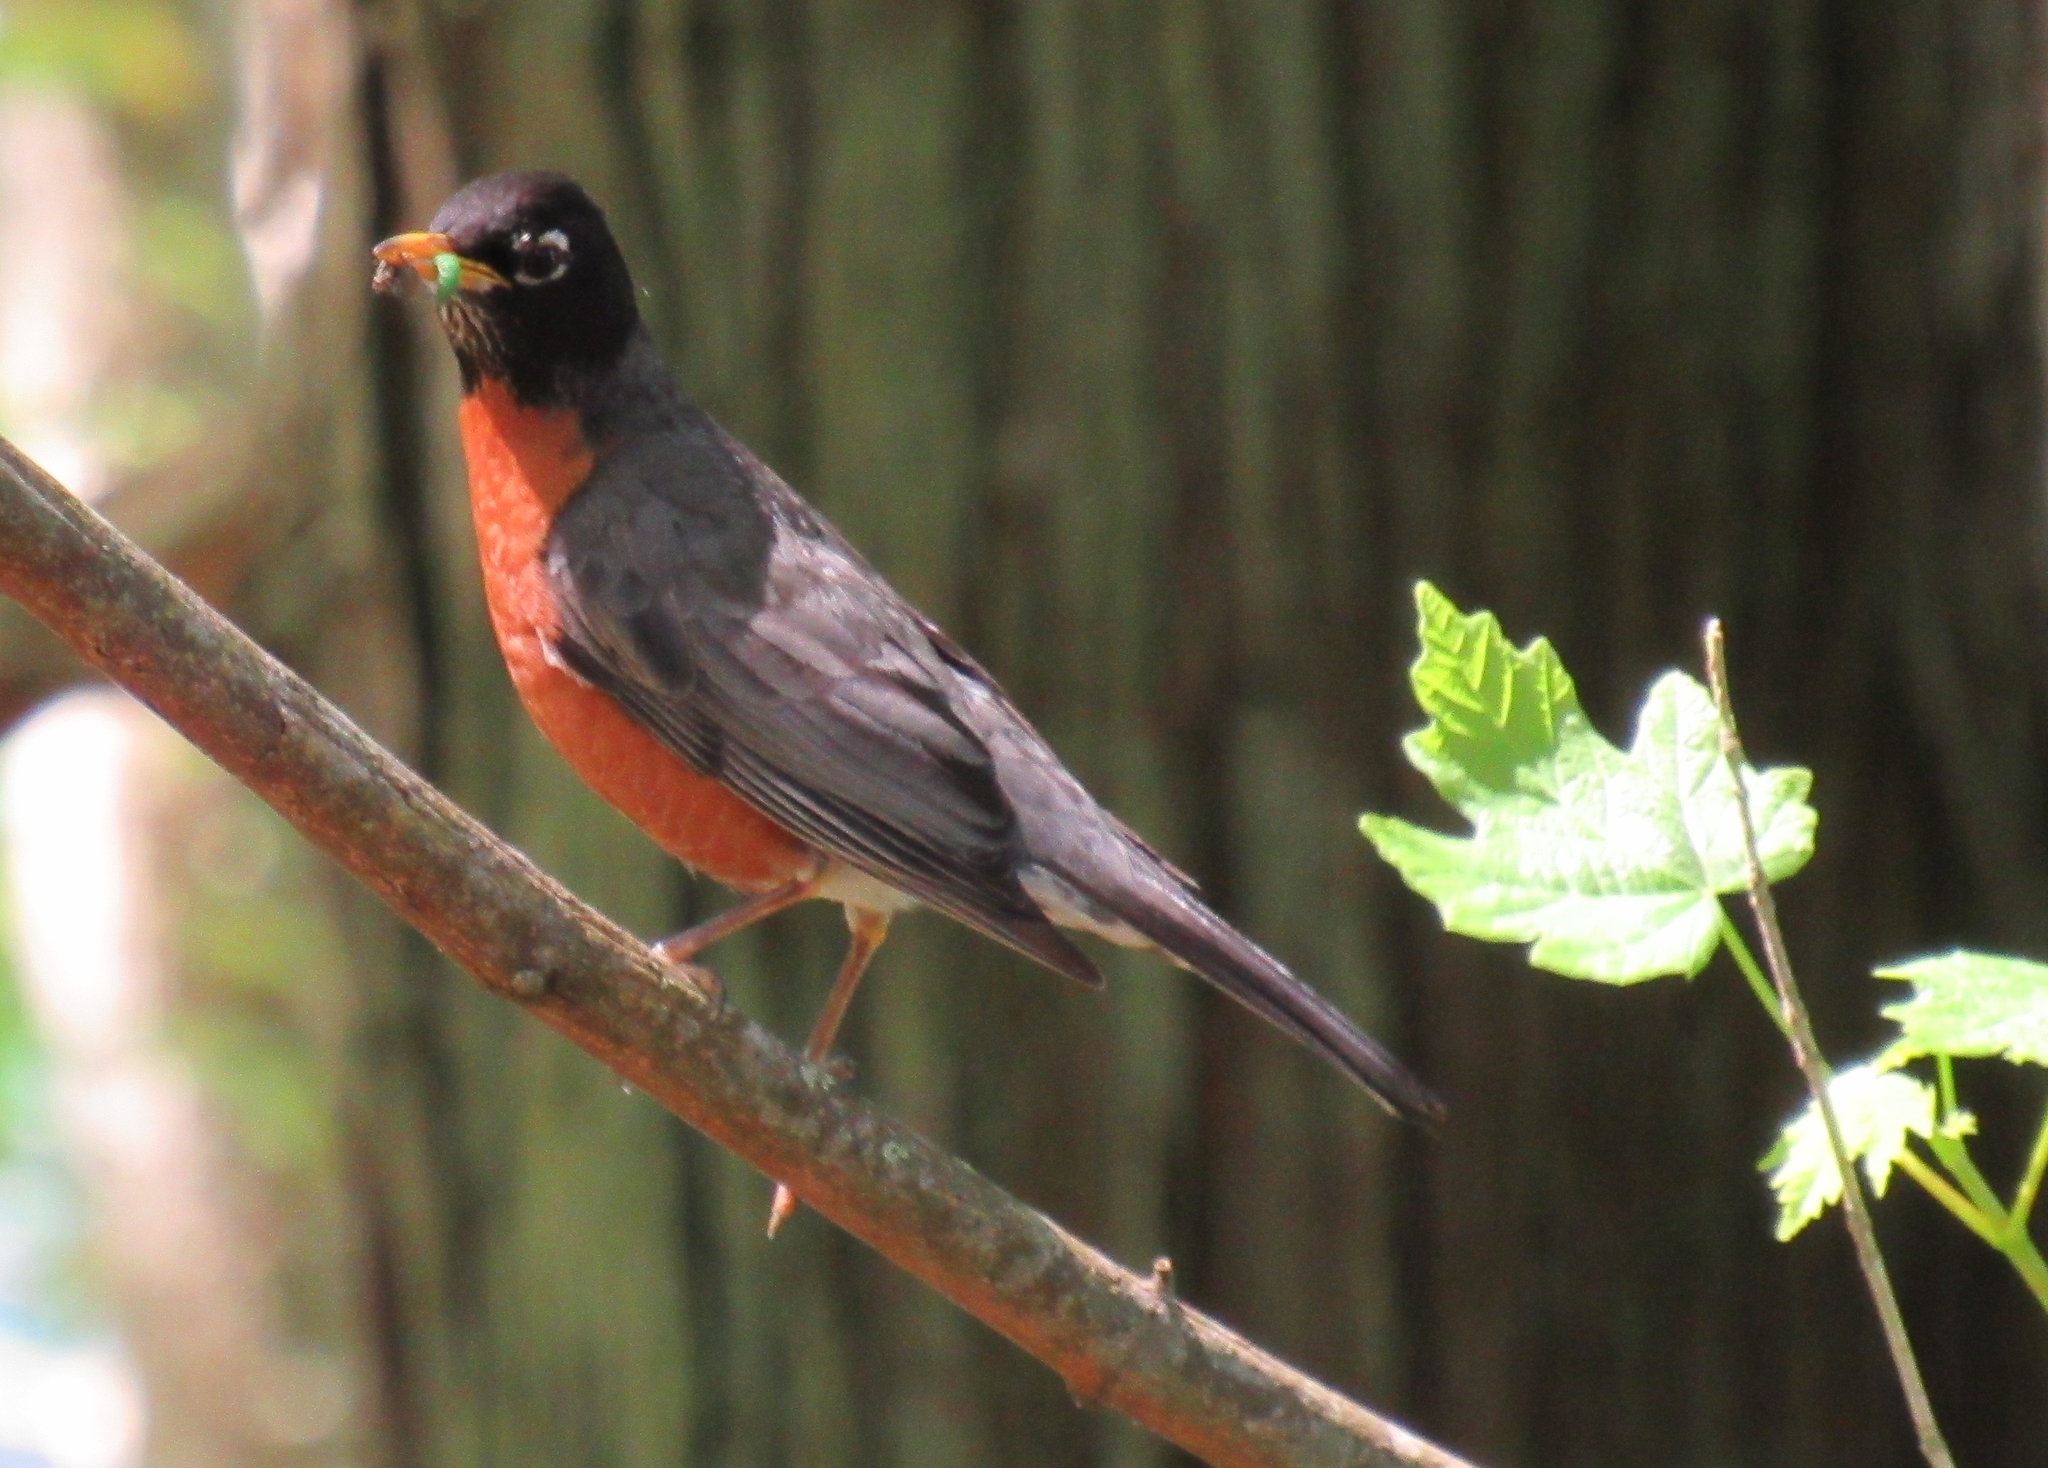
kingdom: Animalia
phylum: Chordata
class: Aves
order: Passeriformes
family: Turdidae
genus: Turdus
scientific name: Turdus migratorius
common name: American robin
